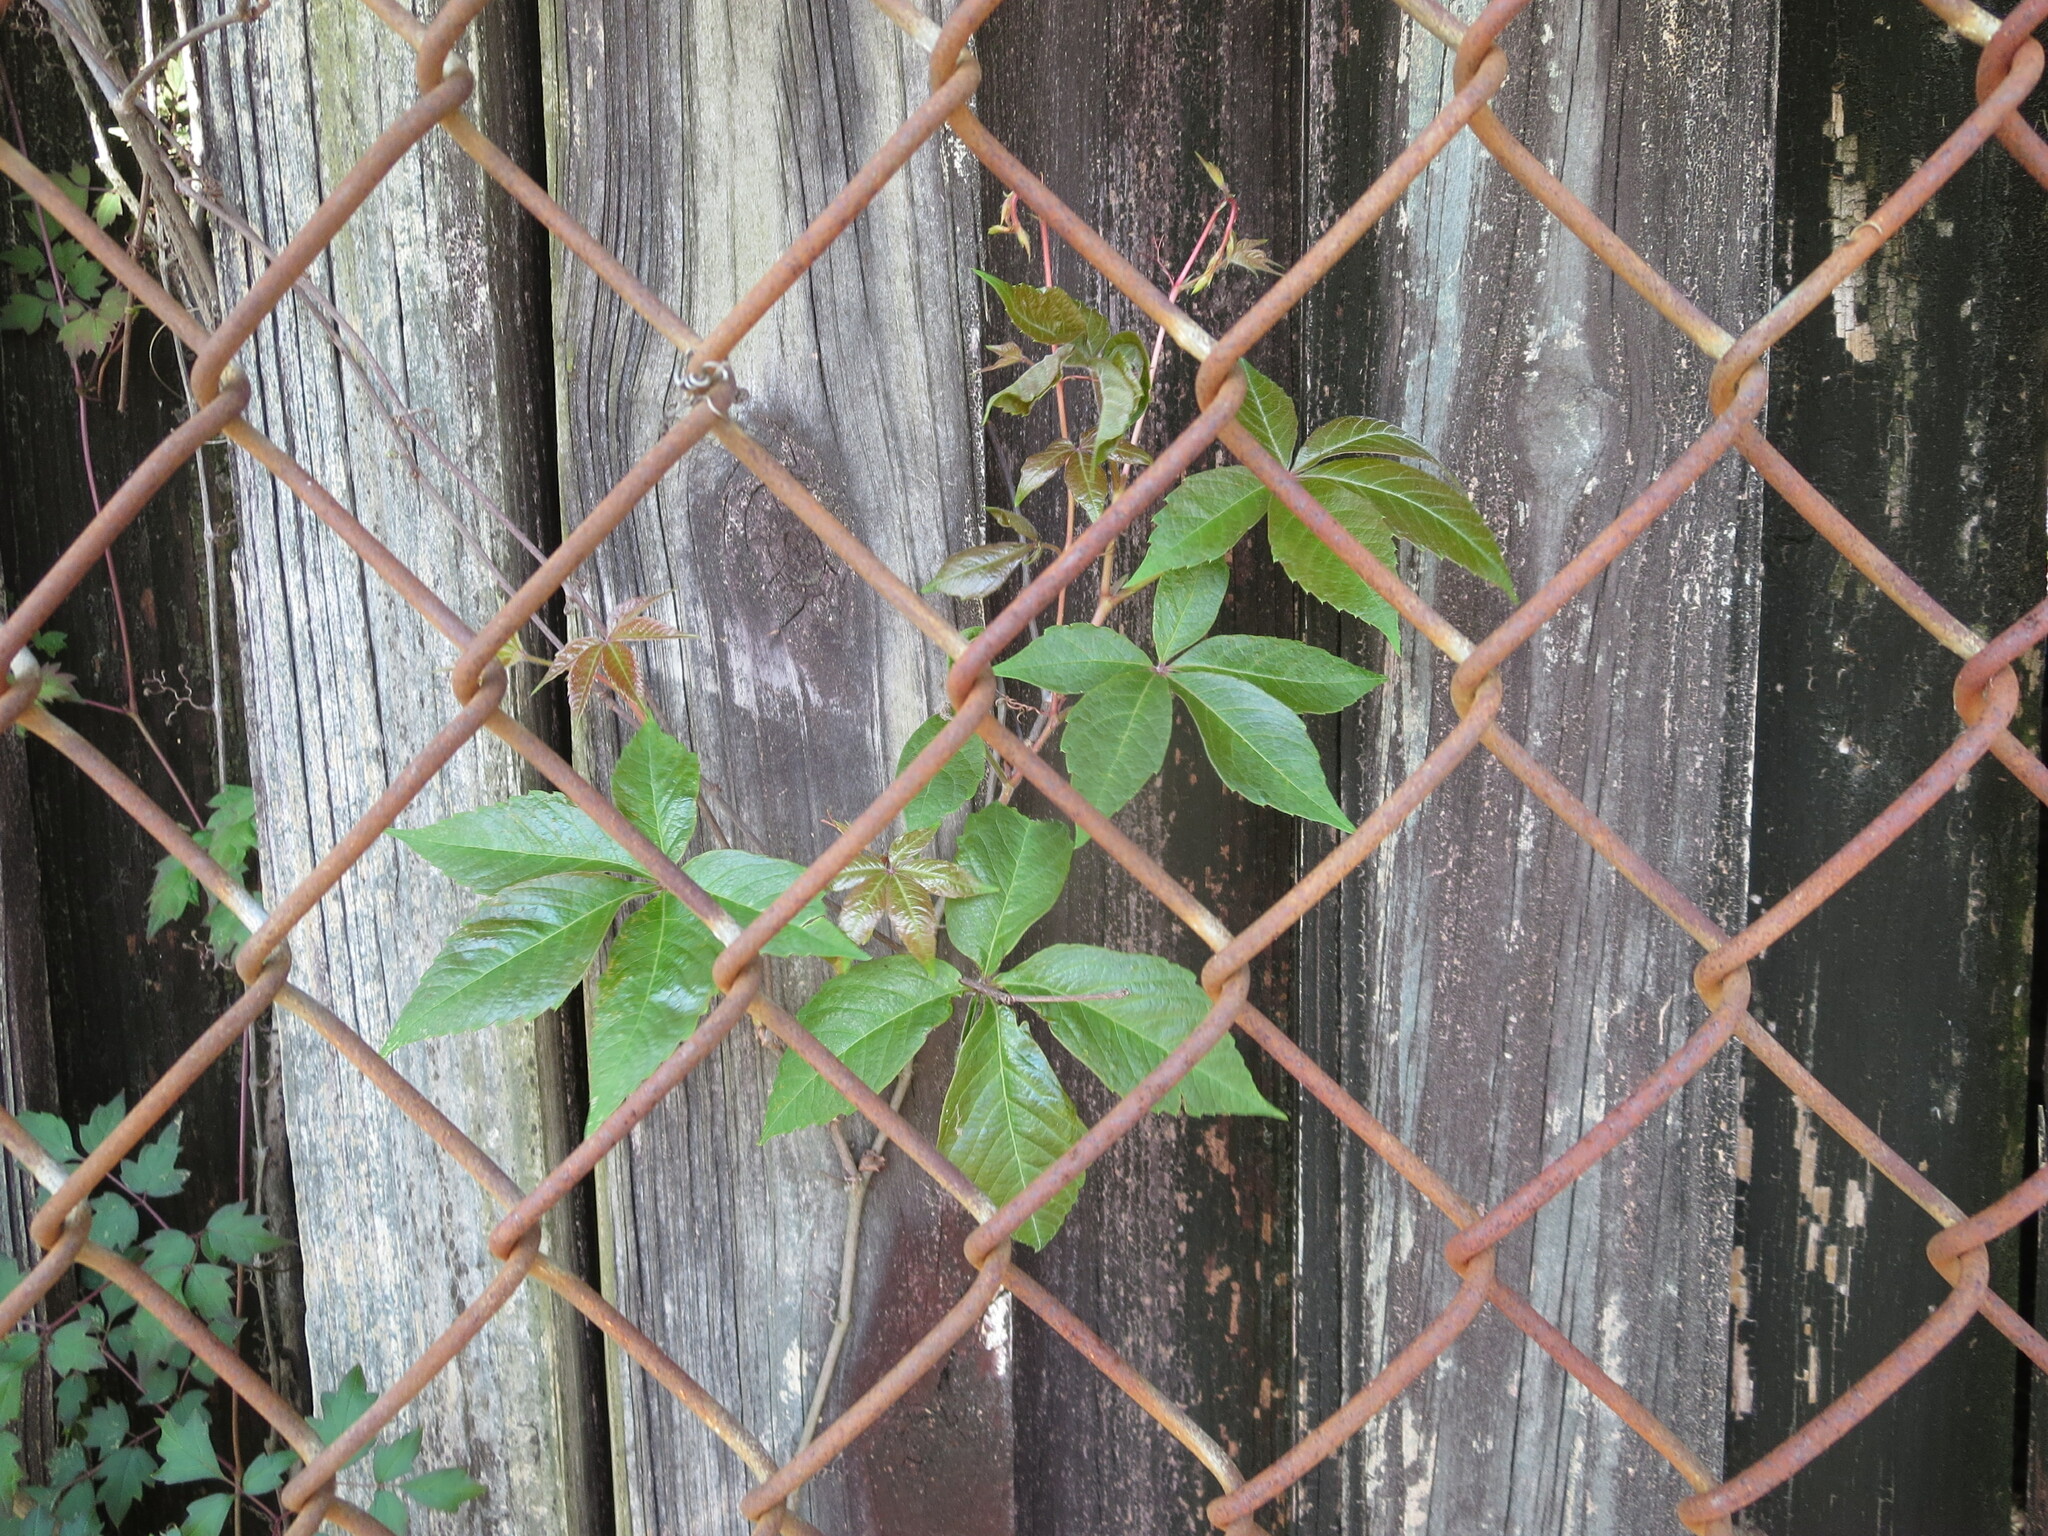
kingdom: Plantae
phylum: Tracheophyta
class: Magnoliopsida
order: Vitales
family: Vitaceae
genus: Parthenocissus
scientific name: Parthenocissus quinquefolia
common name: Virginia-creeper
